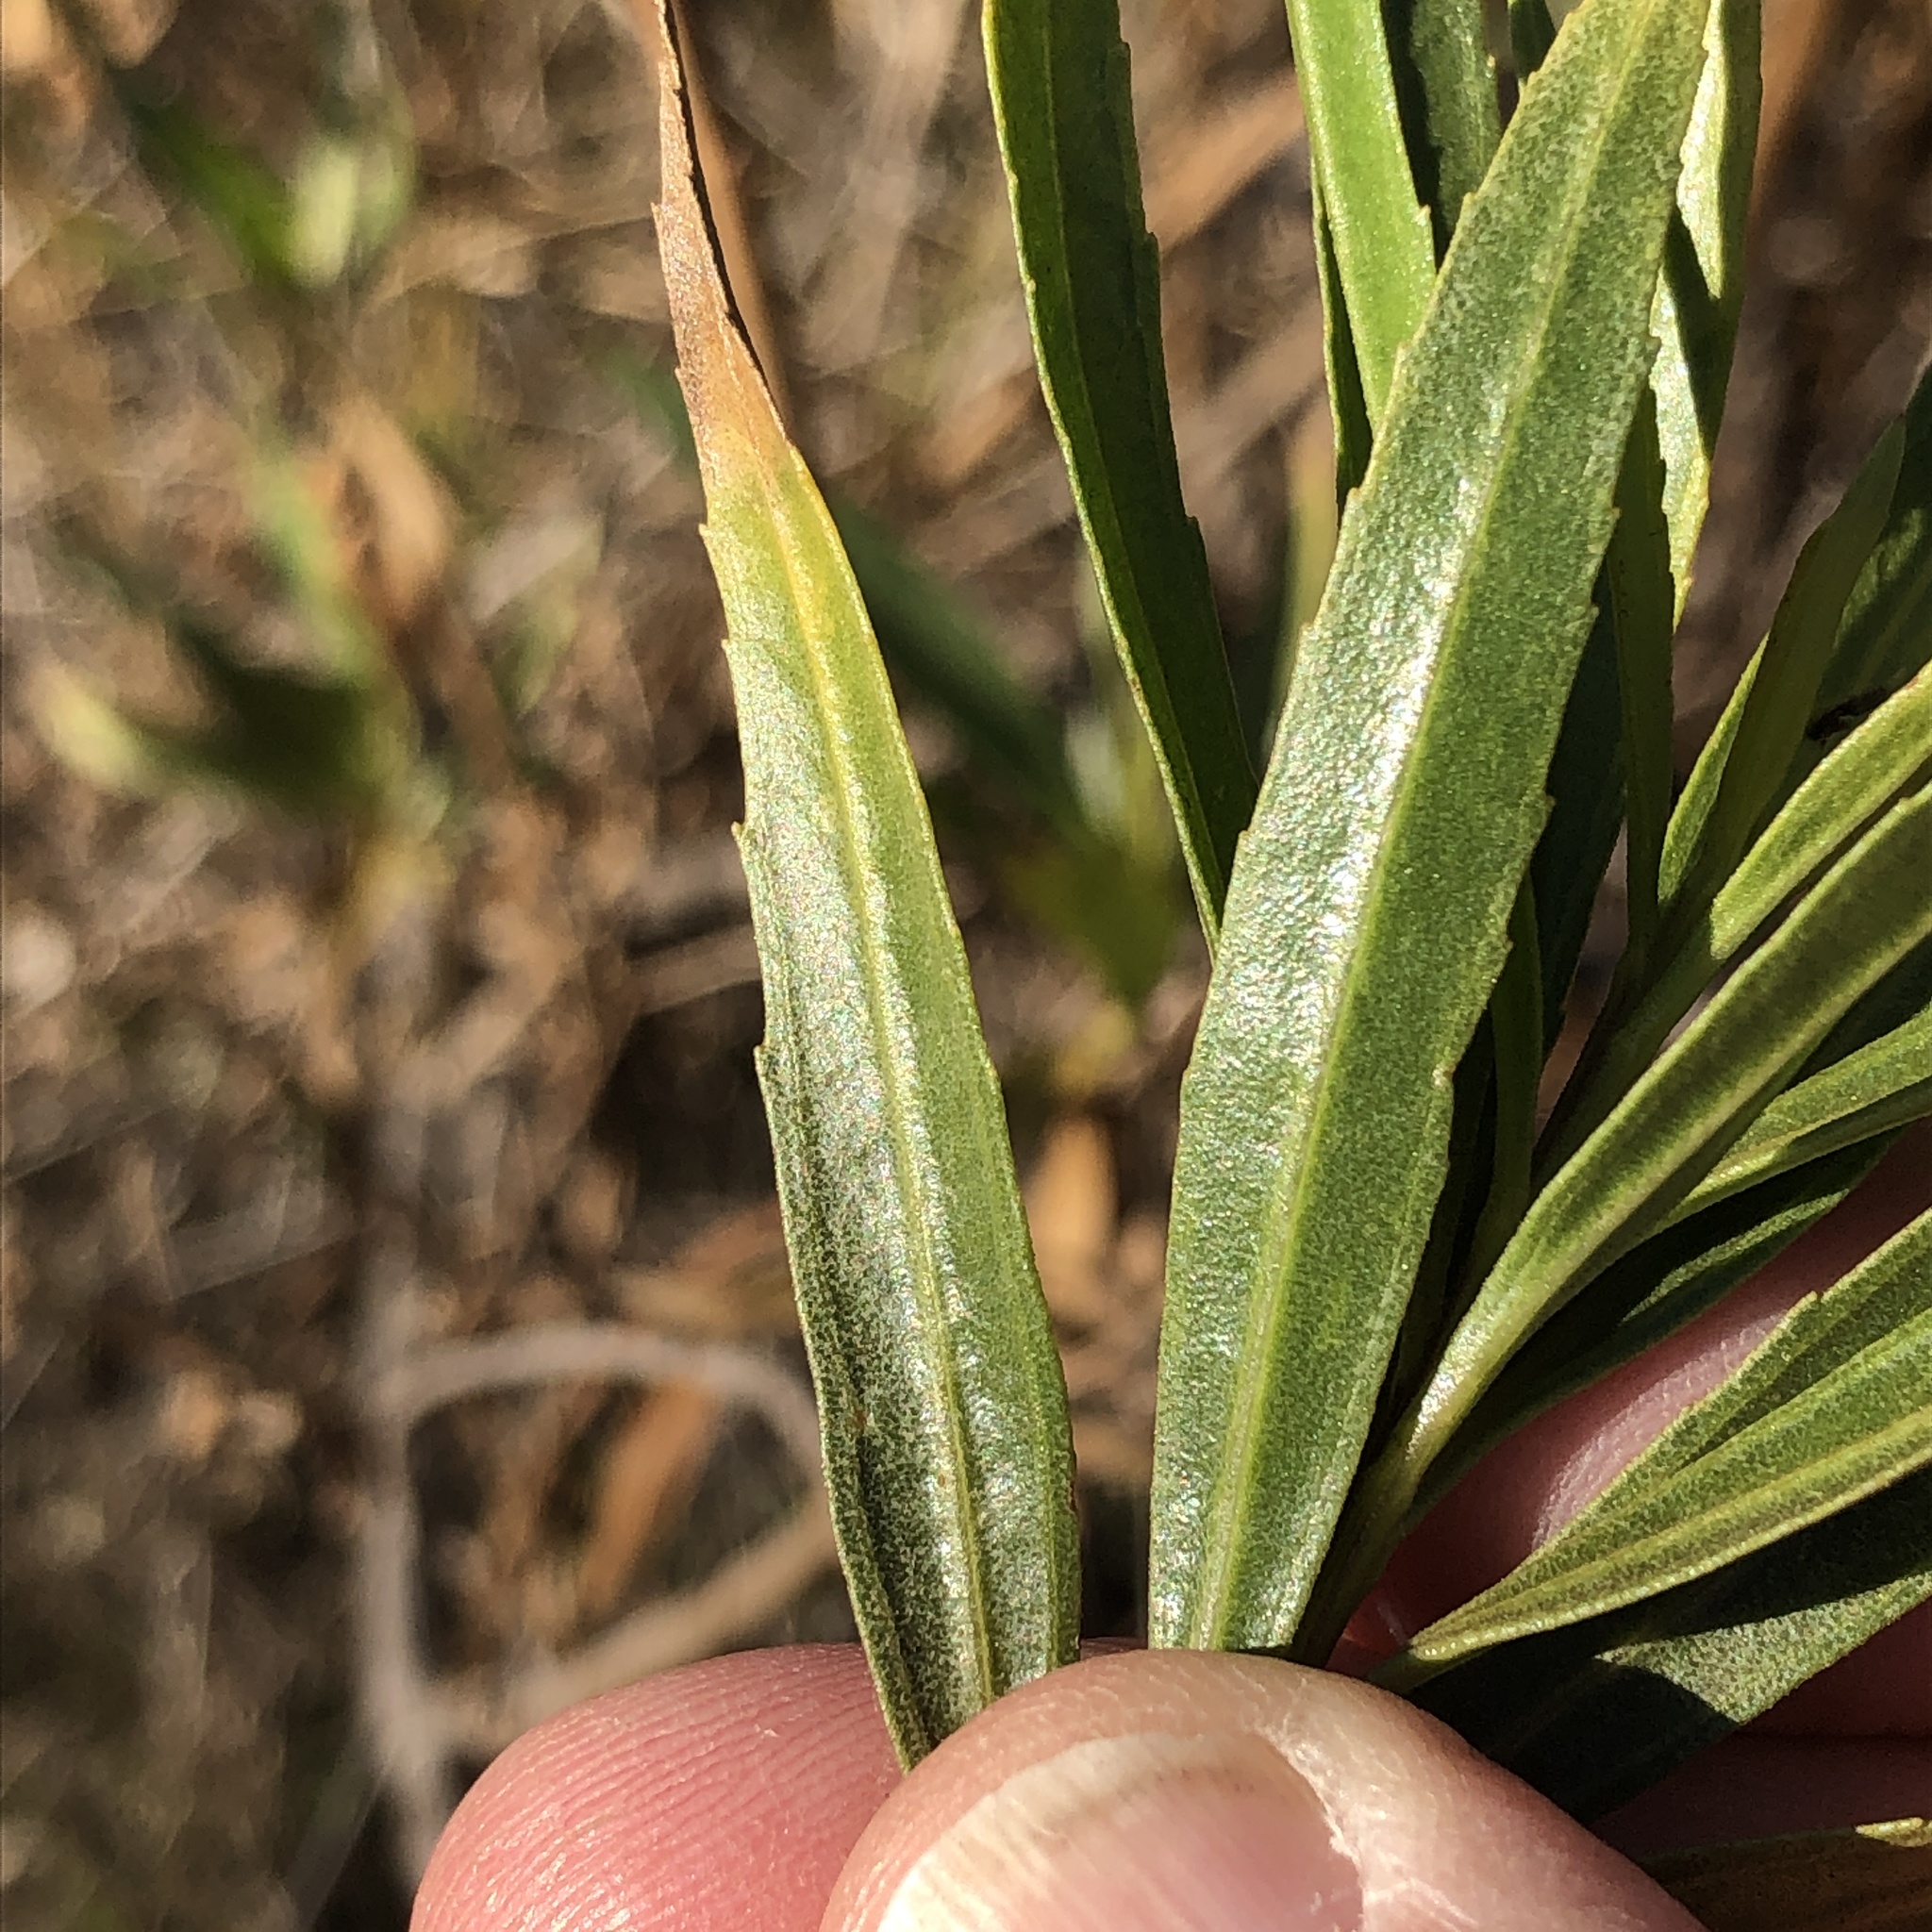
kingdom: Plantae
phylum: Tracheophyta
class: Magnoliopsida
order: Asterales
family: Asteraceae
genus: Baccharis
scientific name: Baccharis salicifolia
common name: Sticky baccharis
